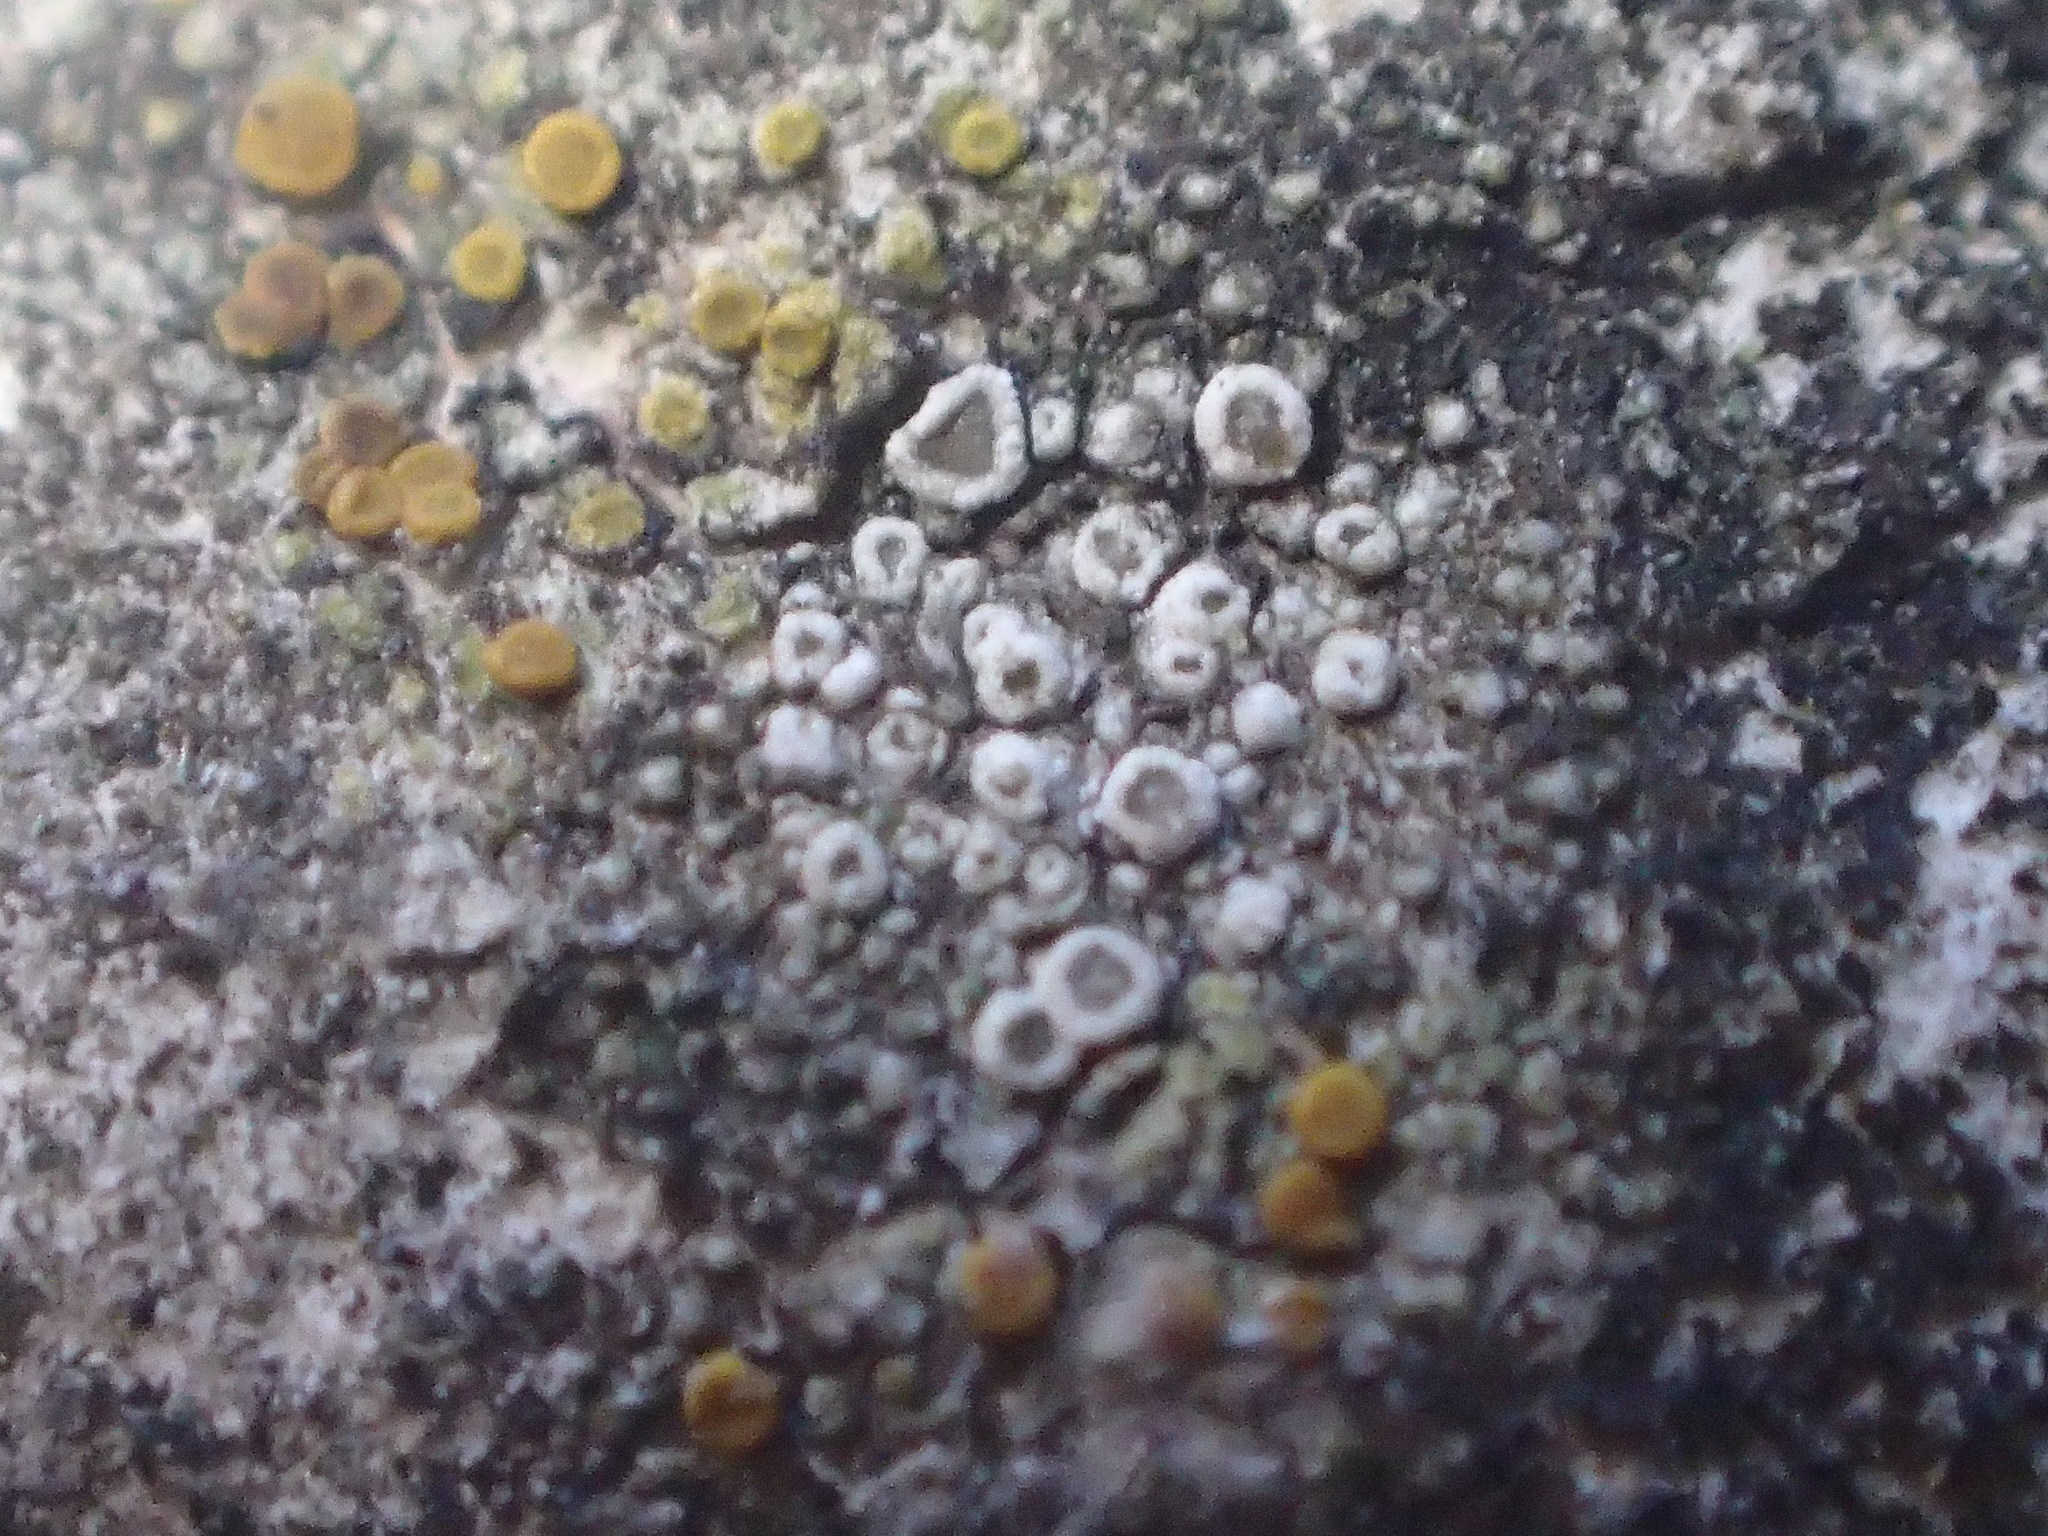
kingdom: Fungi
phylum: Ascomycota
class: Lecanoromycetes
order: Lecanorales
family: Lecanoraceae
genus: Polyozosia
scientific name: Polyozosia dispersa
